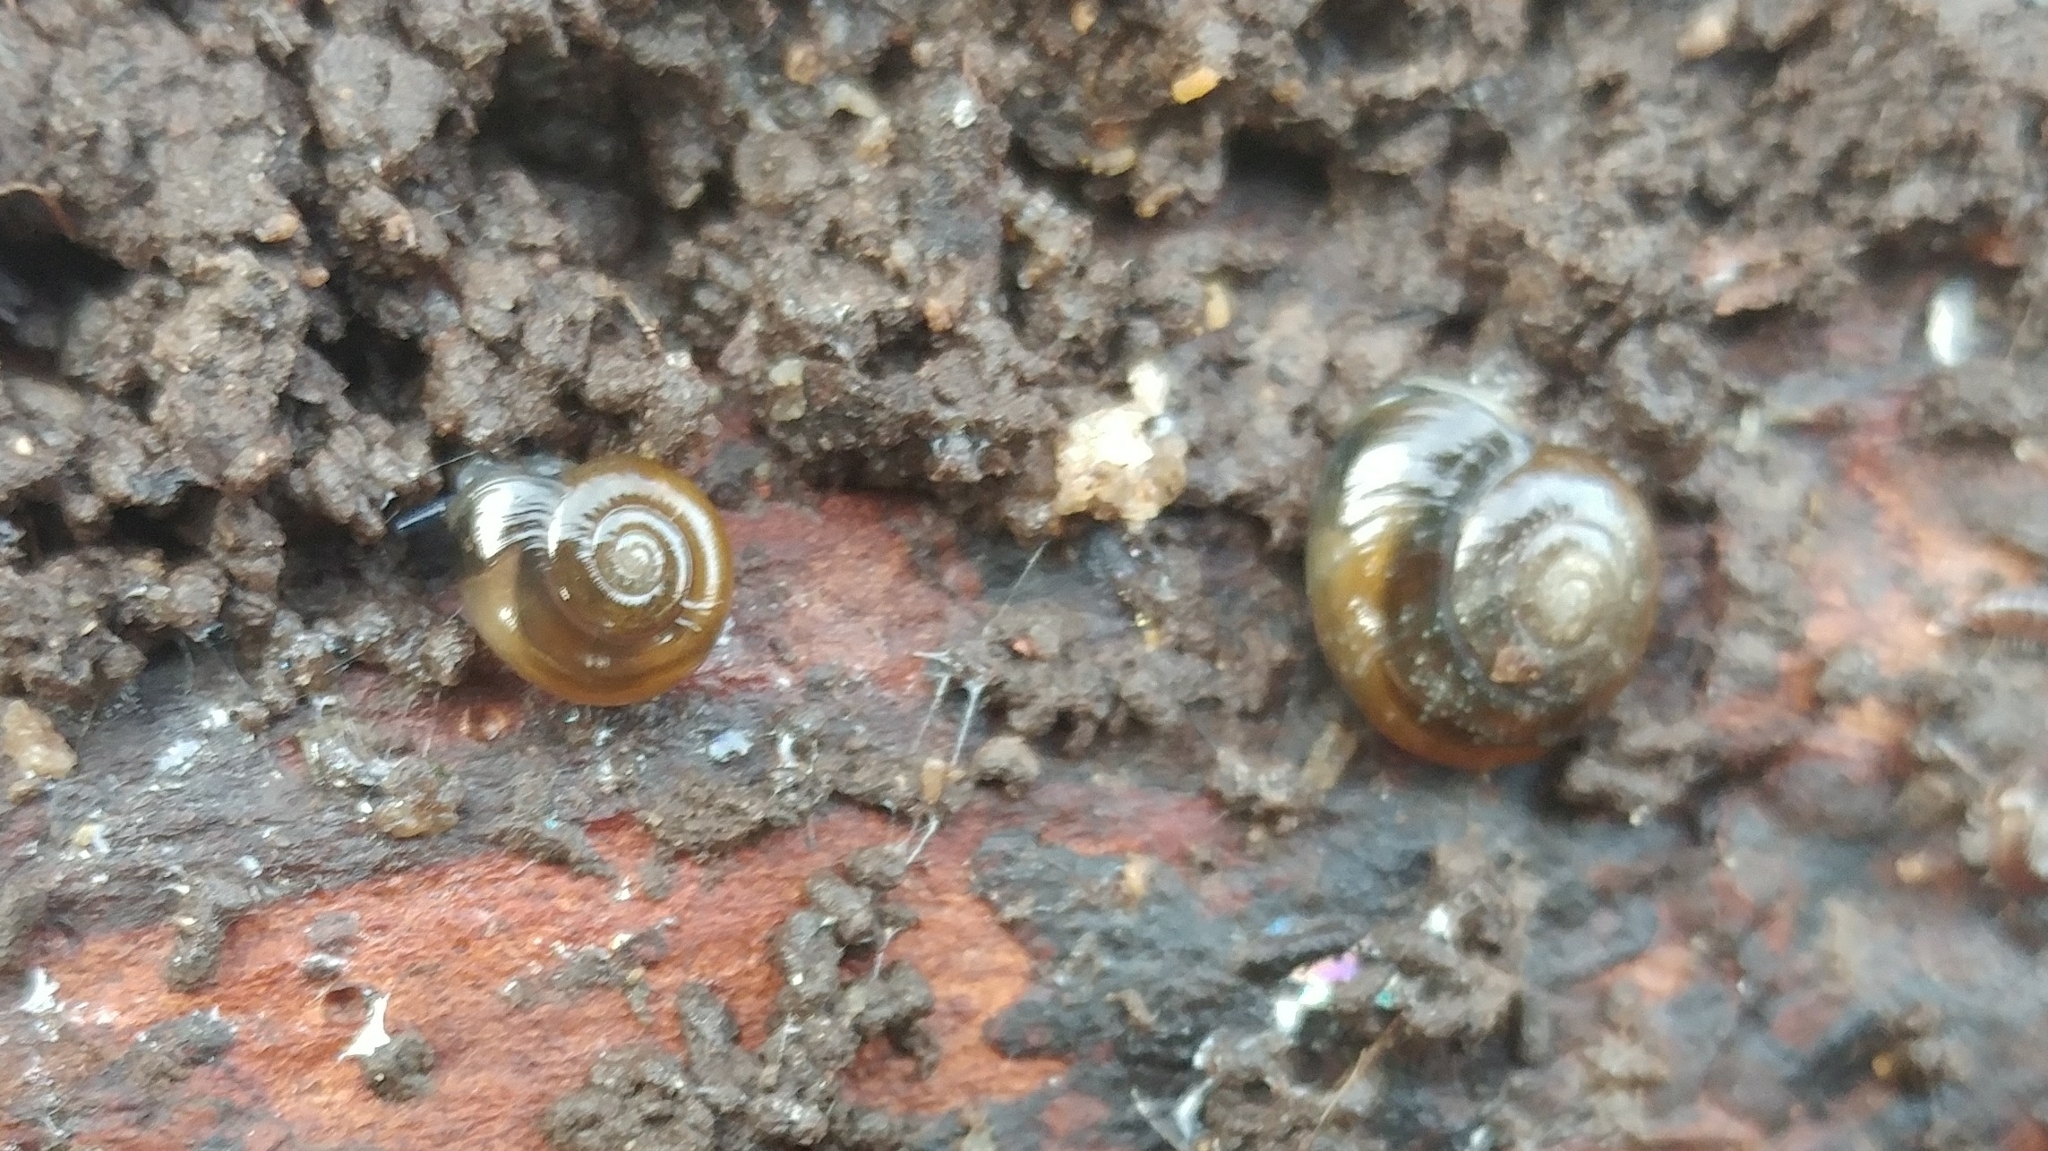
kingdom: Animalia
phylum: Mollusca
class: Gastropoda
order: Stylommatophora
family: Oxychilidae
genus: Oxychilus
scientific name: Oxychilus
